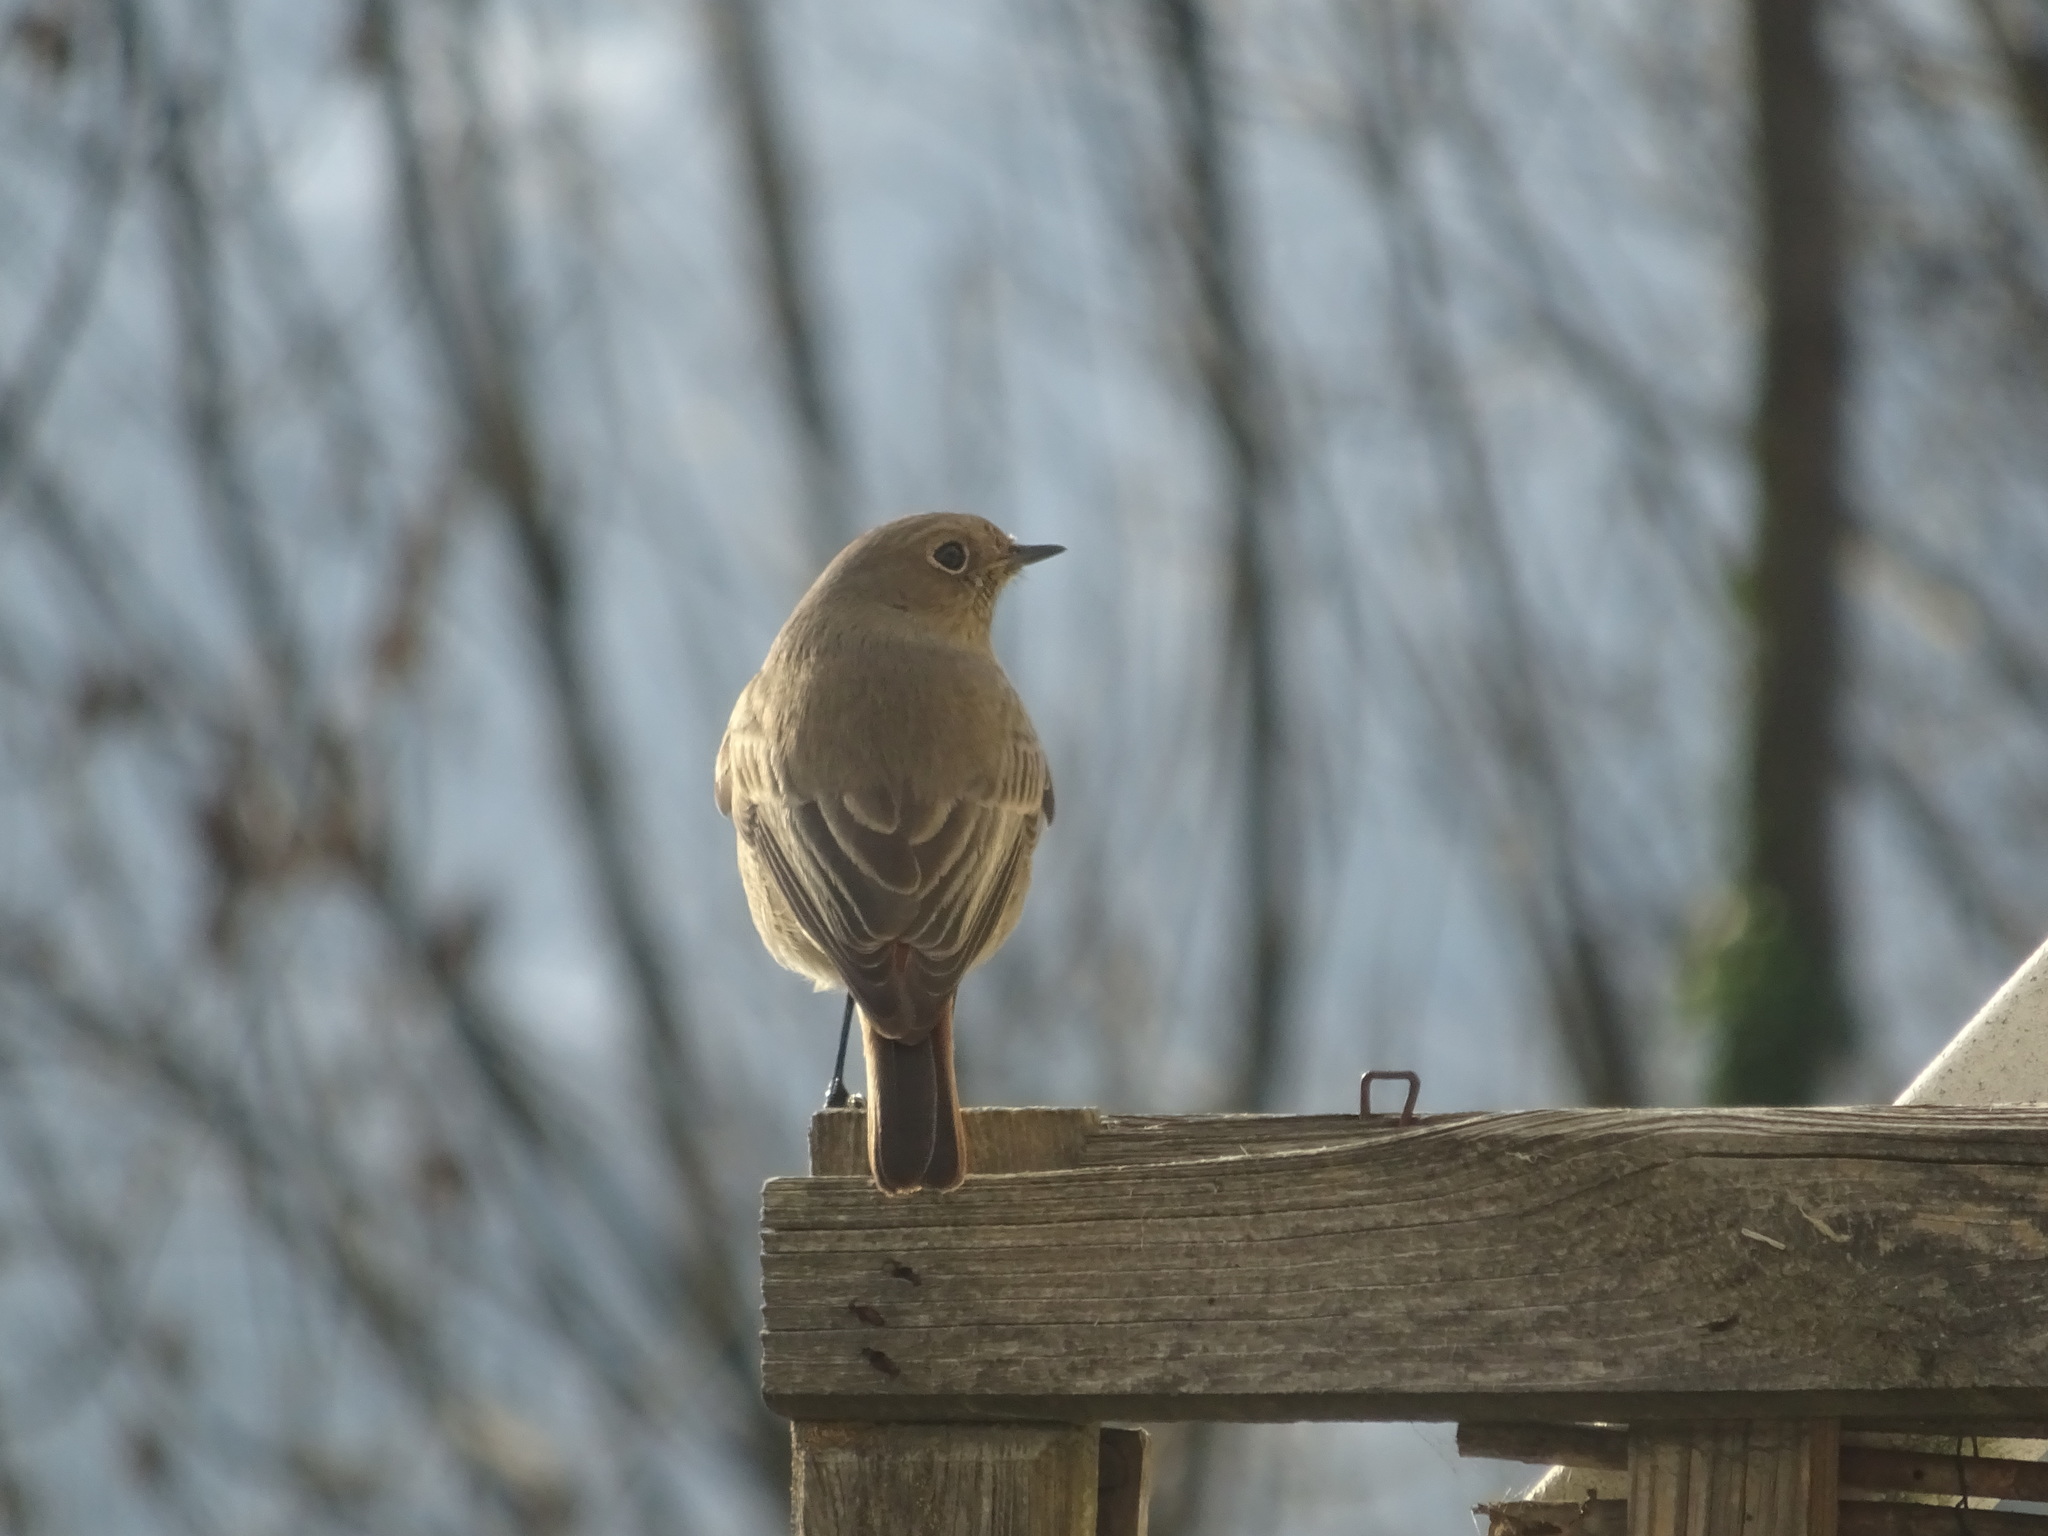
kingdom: Animalia
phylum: Chordata
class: Aves
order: Passeriformes
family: Muscicapidae
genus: Phoenicurus
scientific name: Phoenicurus ochruros
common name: Black redstart
